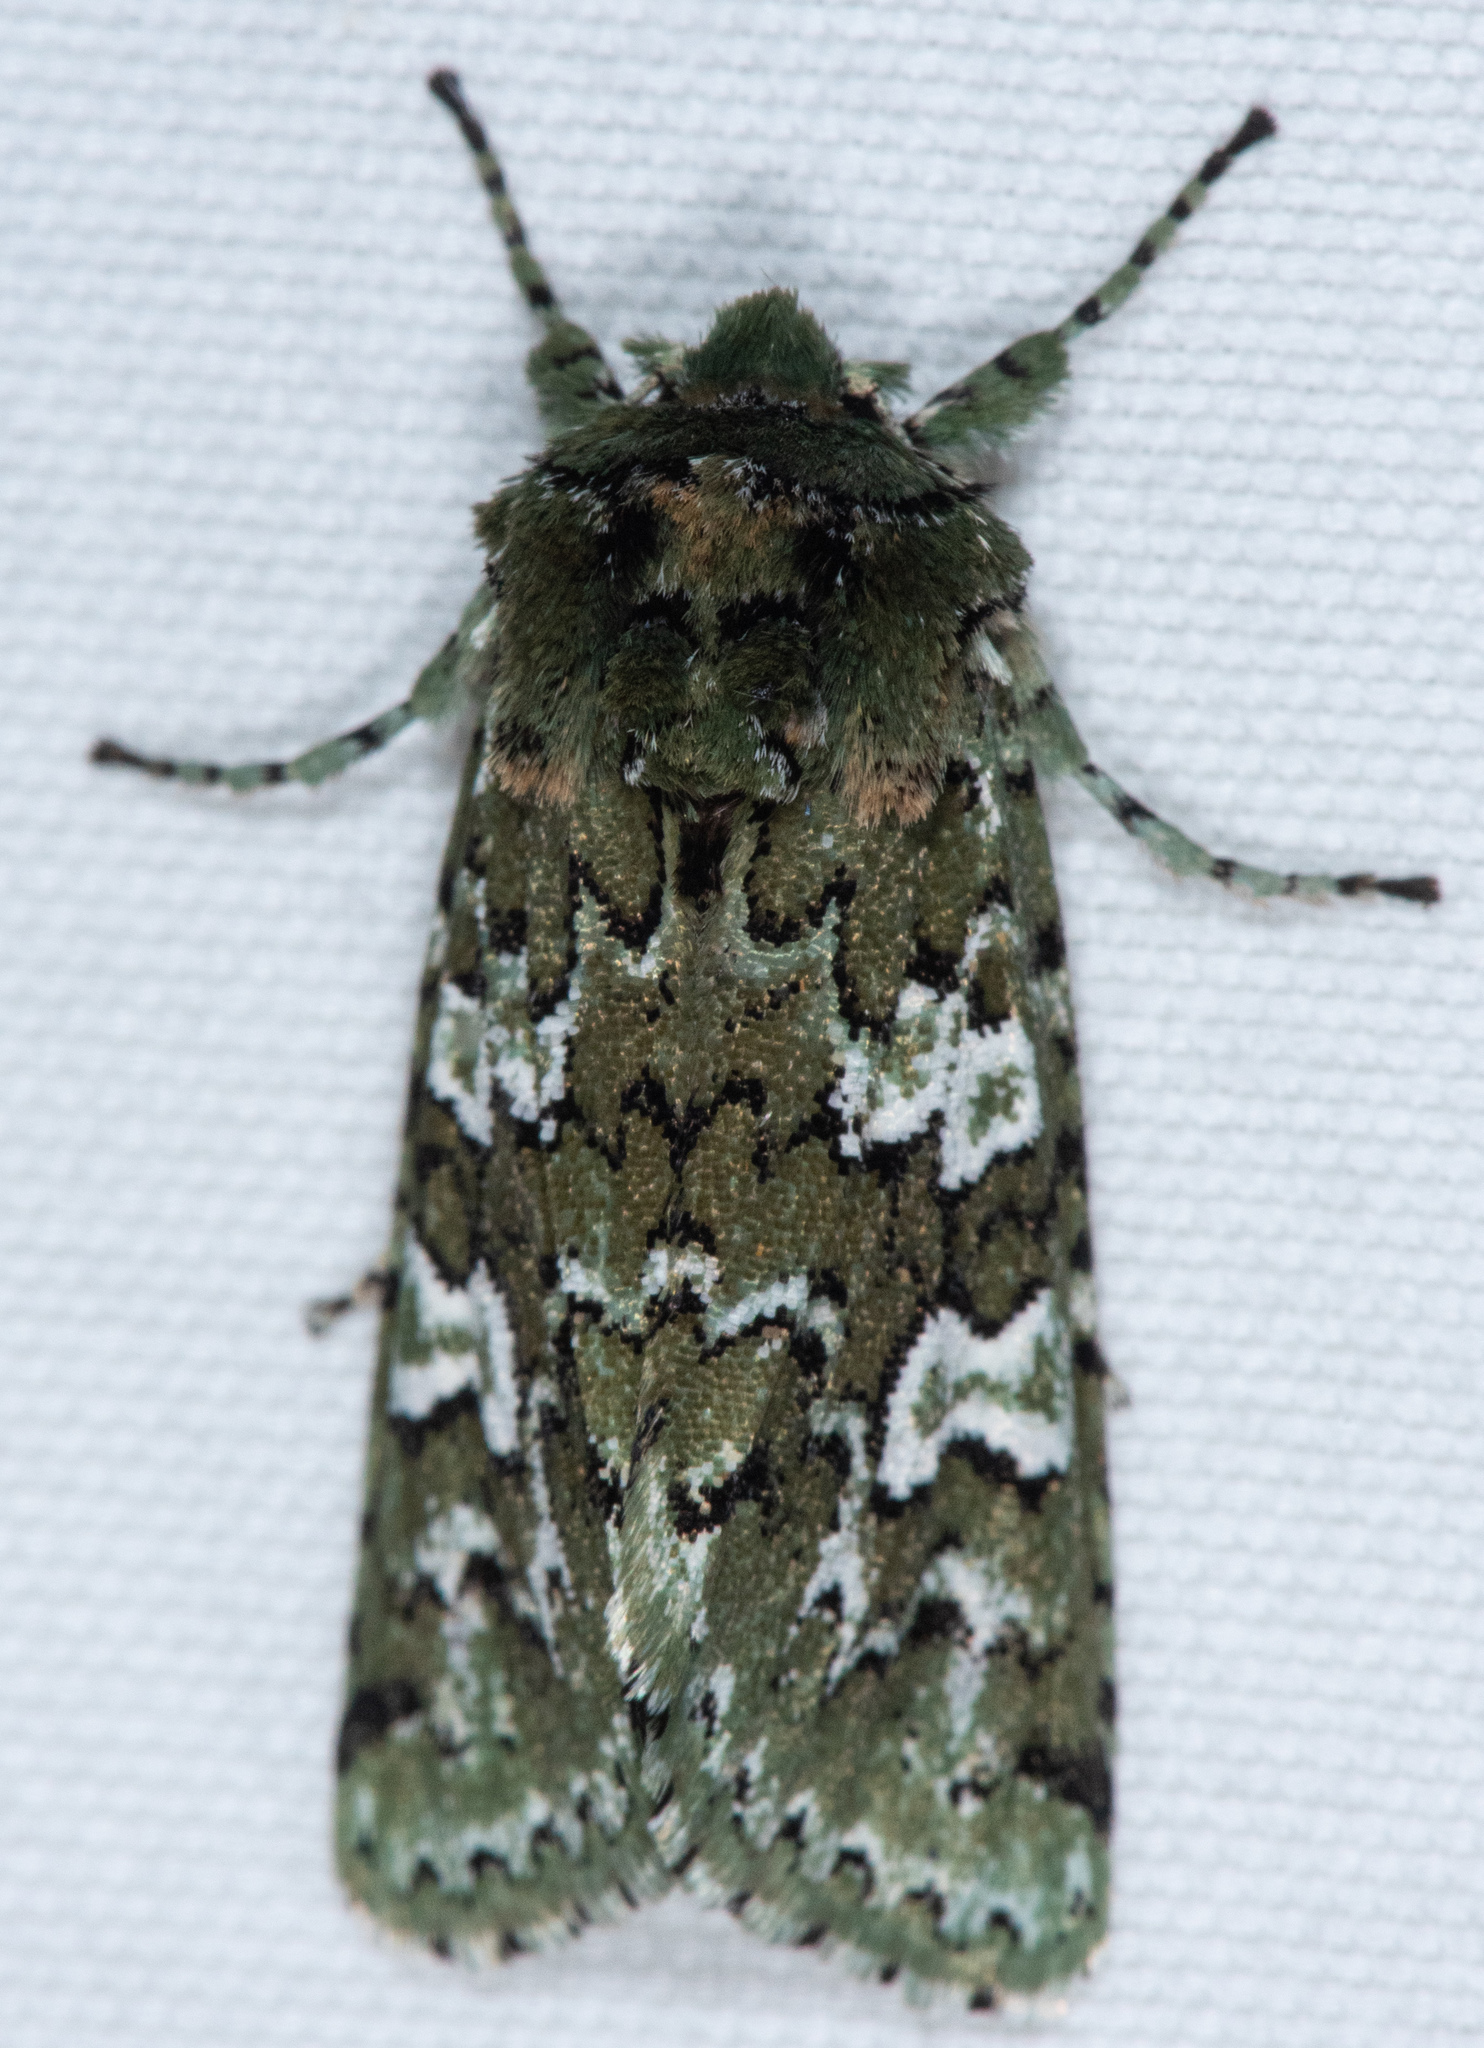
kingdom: Animalia
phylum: Arthropoda
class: Insecta
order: Lepidoptera
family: Noctuidae
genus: Feralia
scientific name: Feralia februalis
